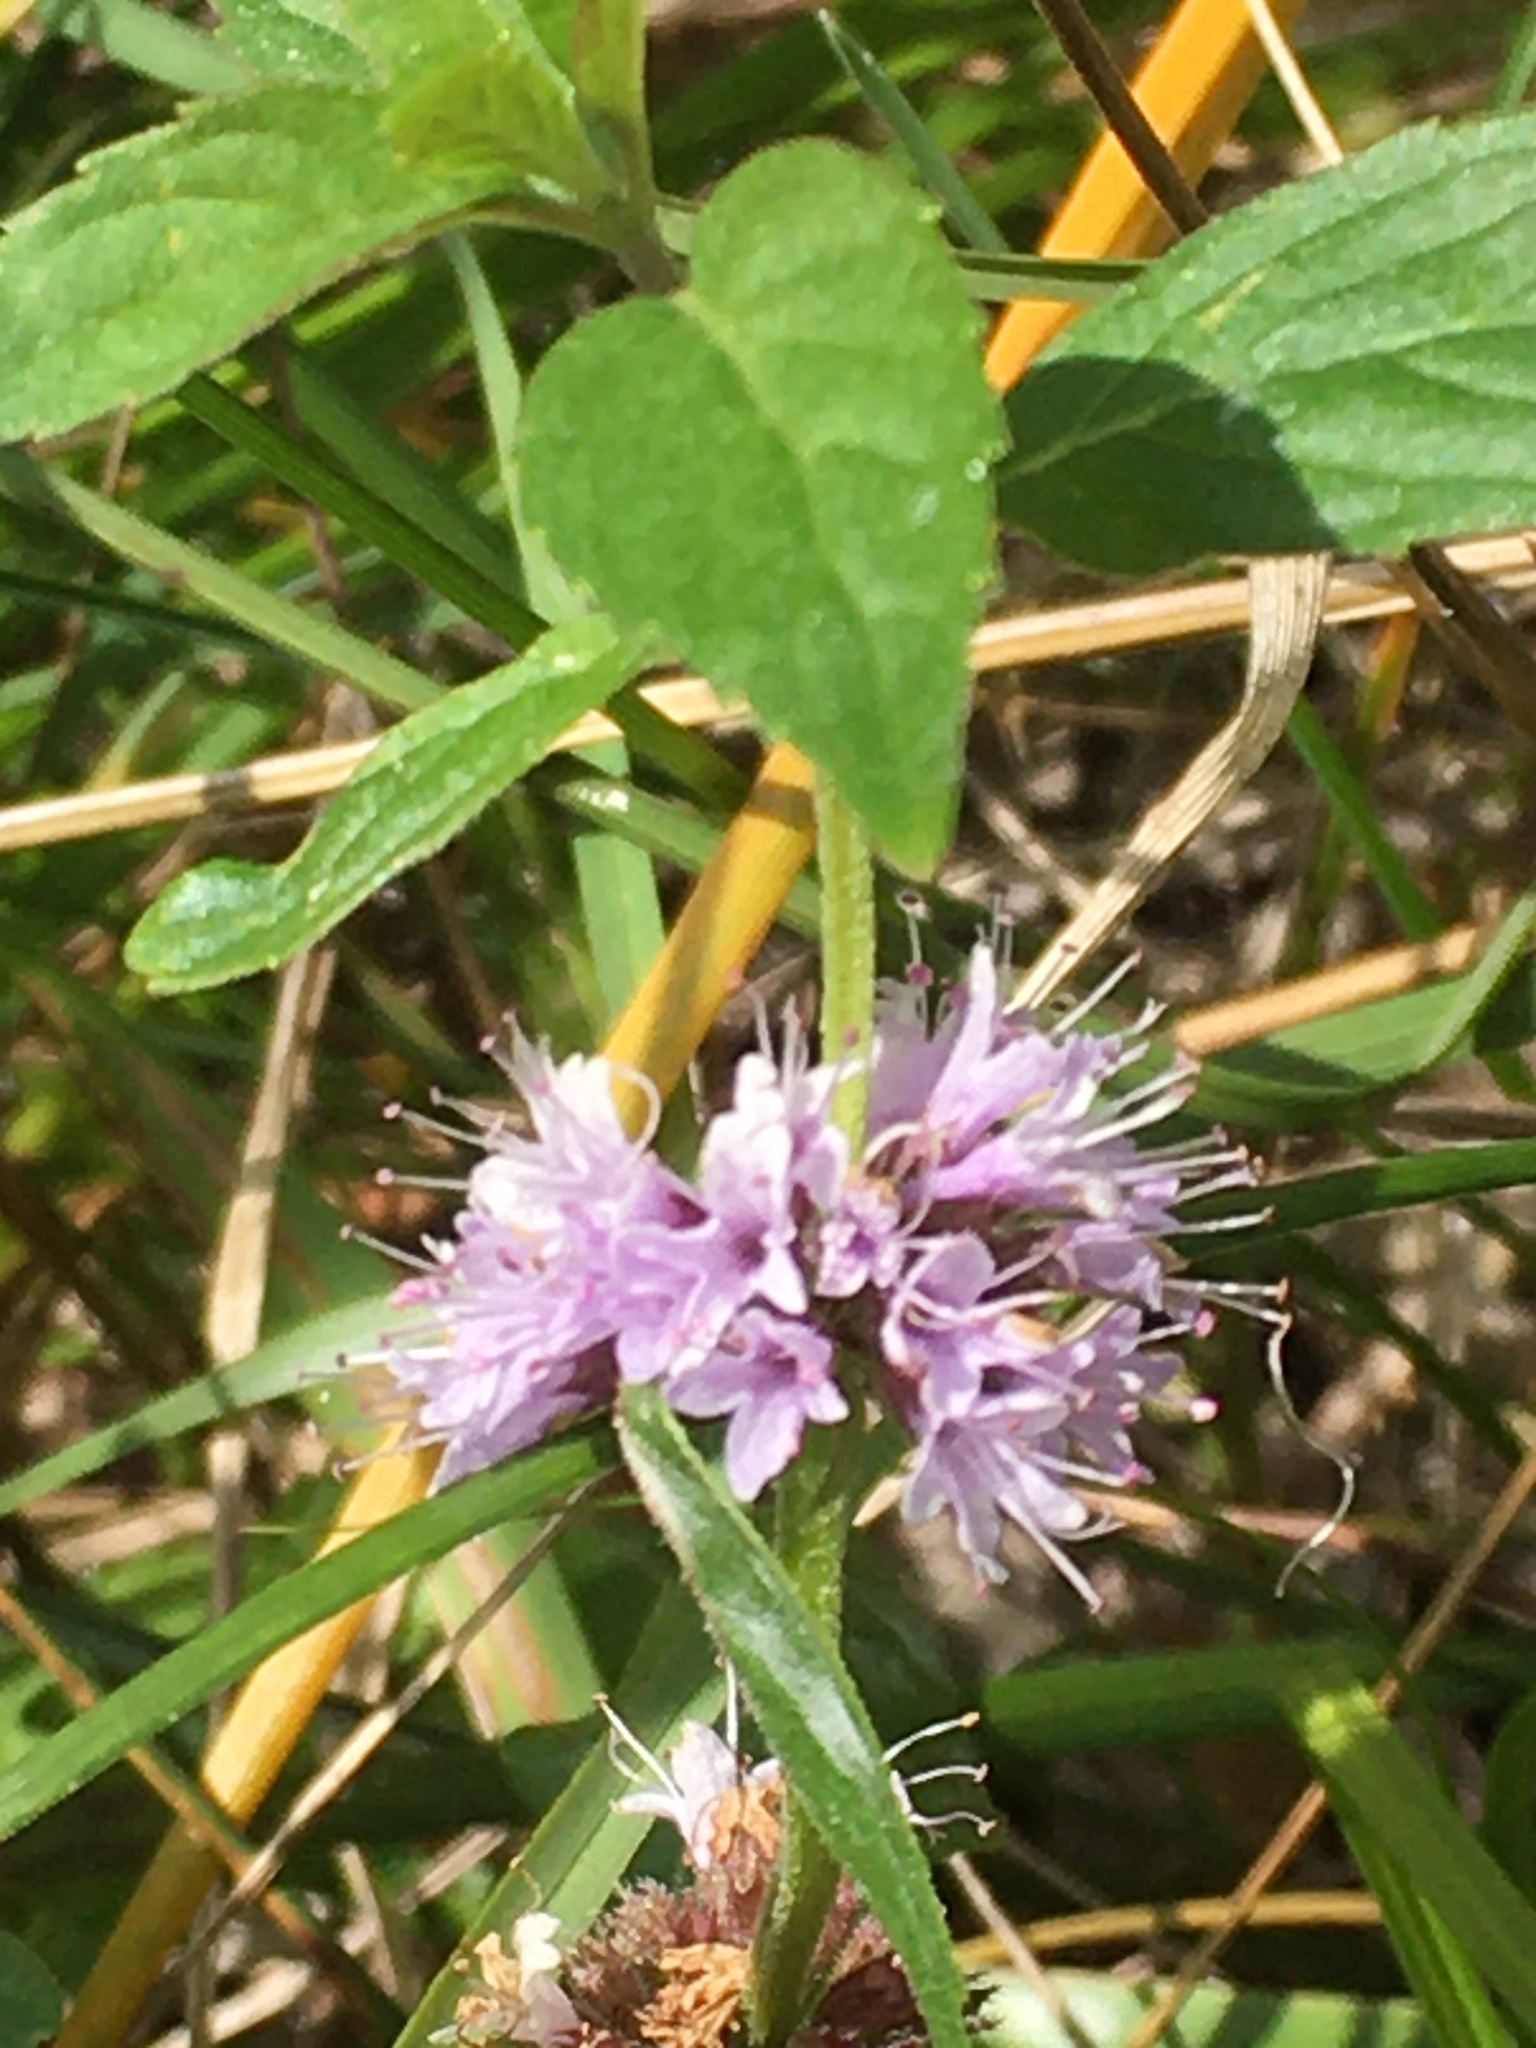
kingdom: Plantae
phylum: Tracheophyta
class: Magnoliopsida
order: Lamiales
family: Lamiaceae
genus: Mentha
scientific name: Mentha canadensis
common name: American corn mint
